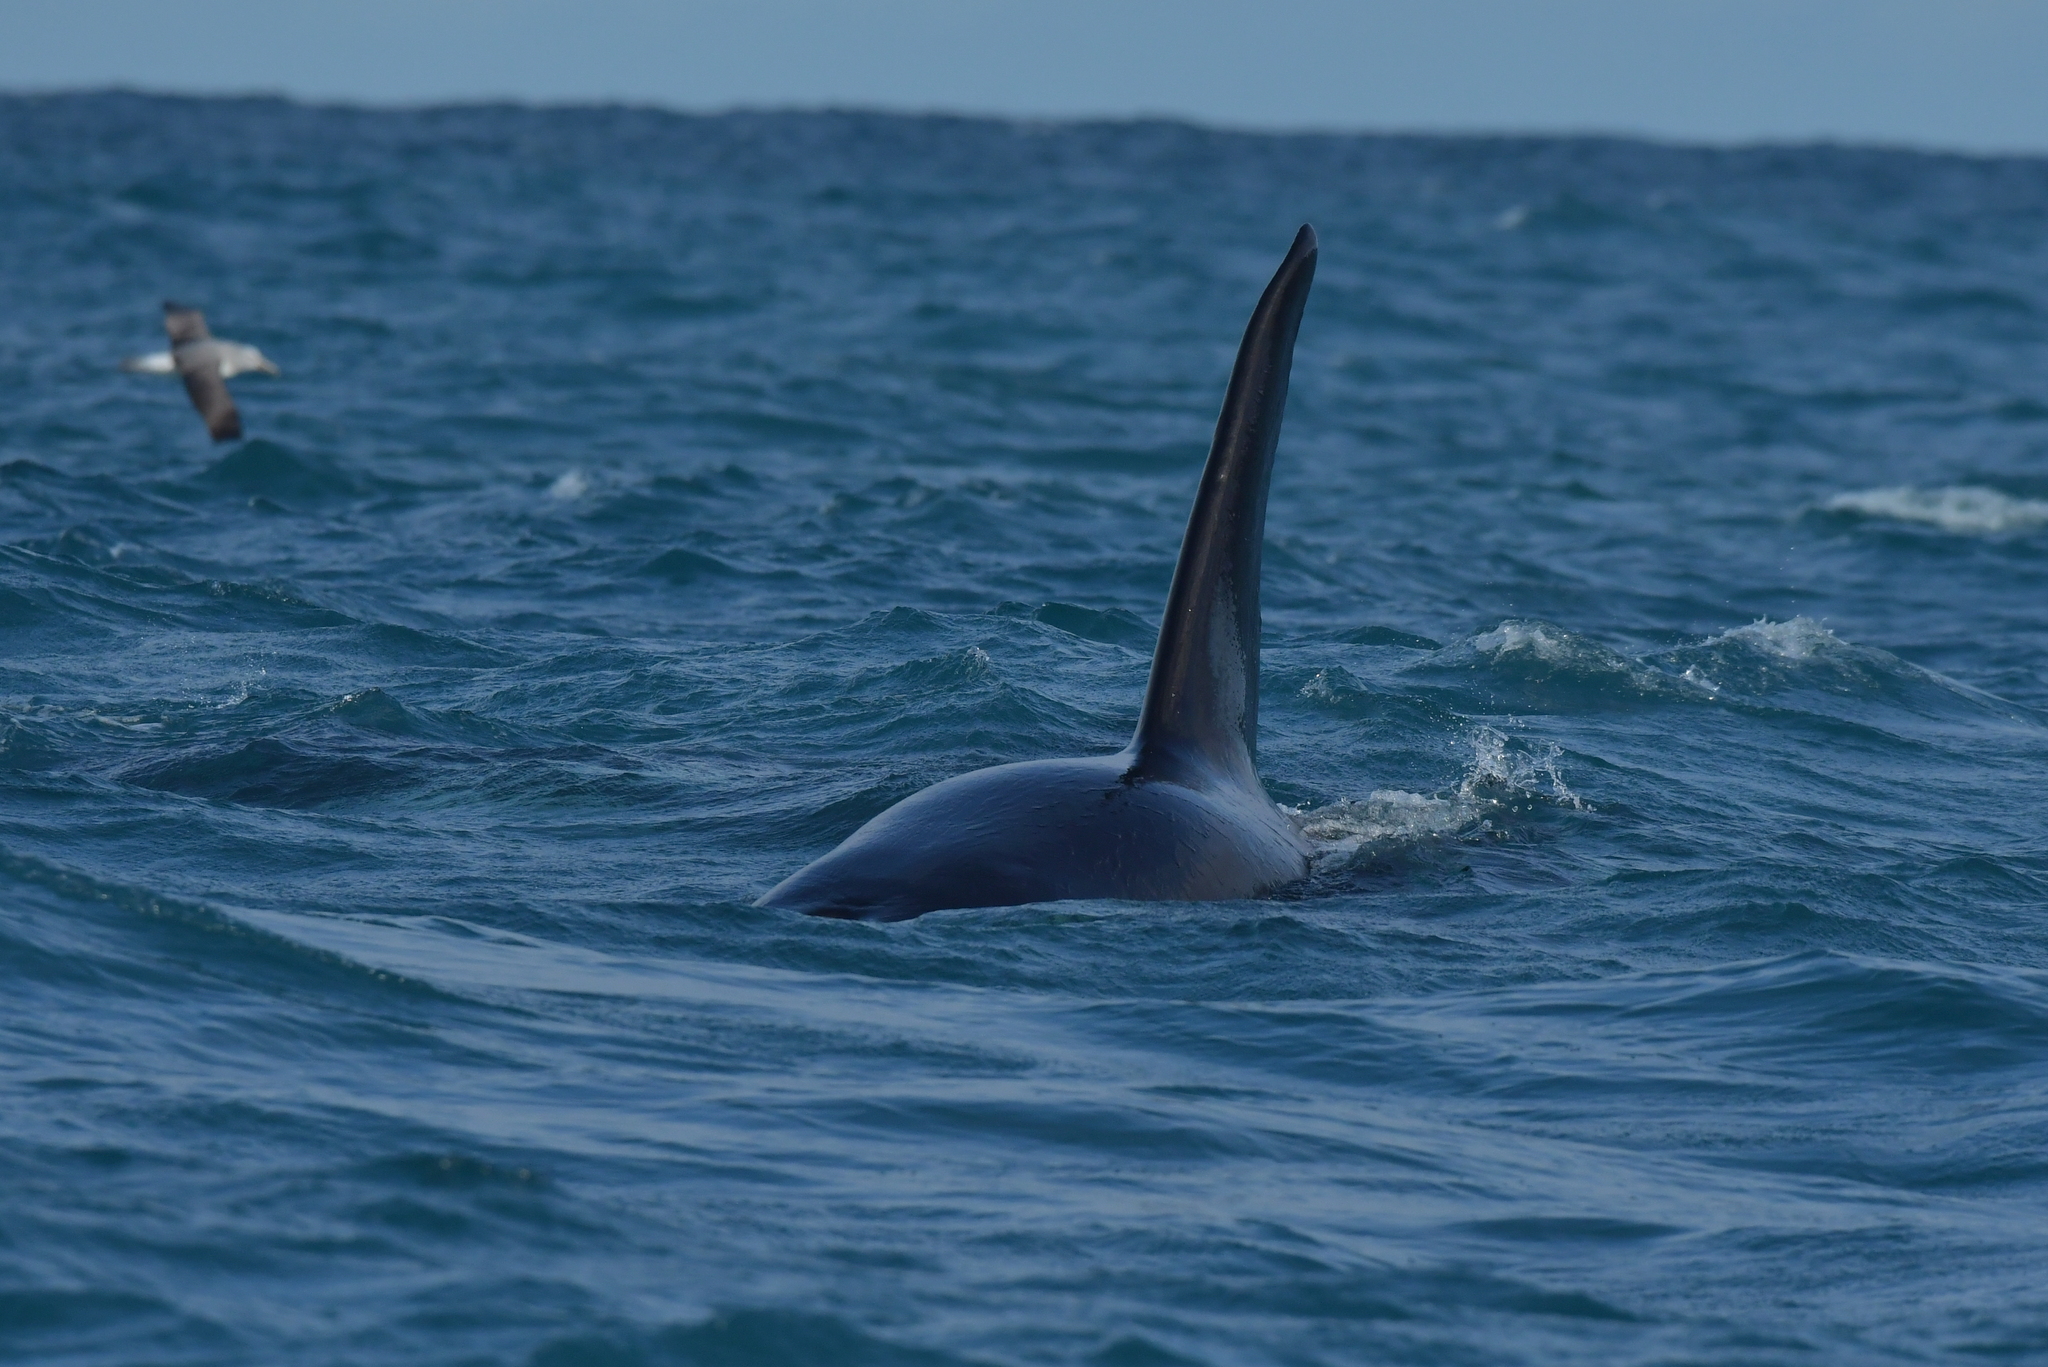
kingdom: Animalia
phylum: Chordata
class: Mammalia
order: Cetacea
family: Delphinidae
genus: Orcinus
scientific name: Orcinus orca
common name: Killer whale
